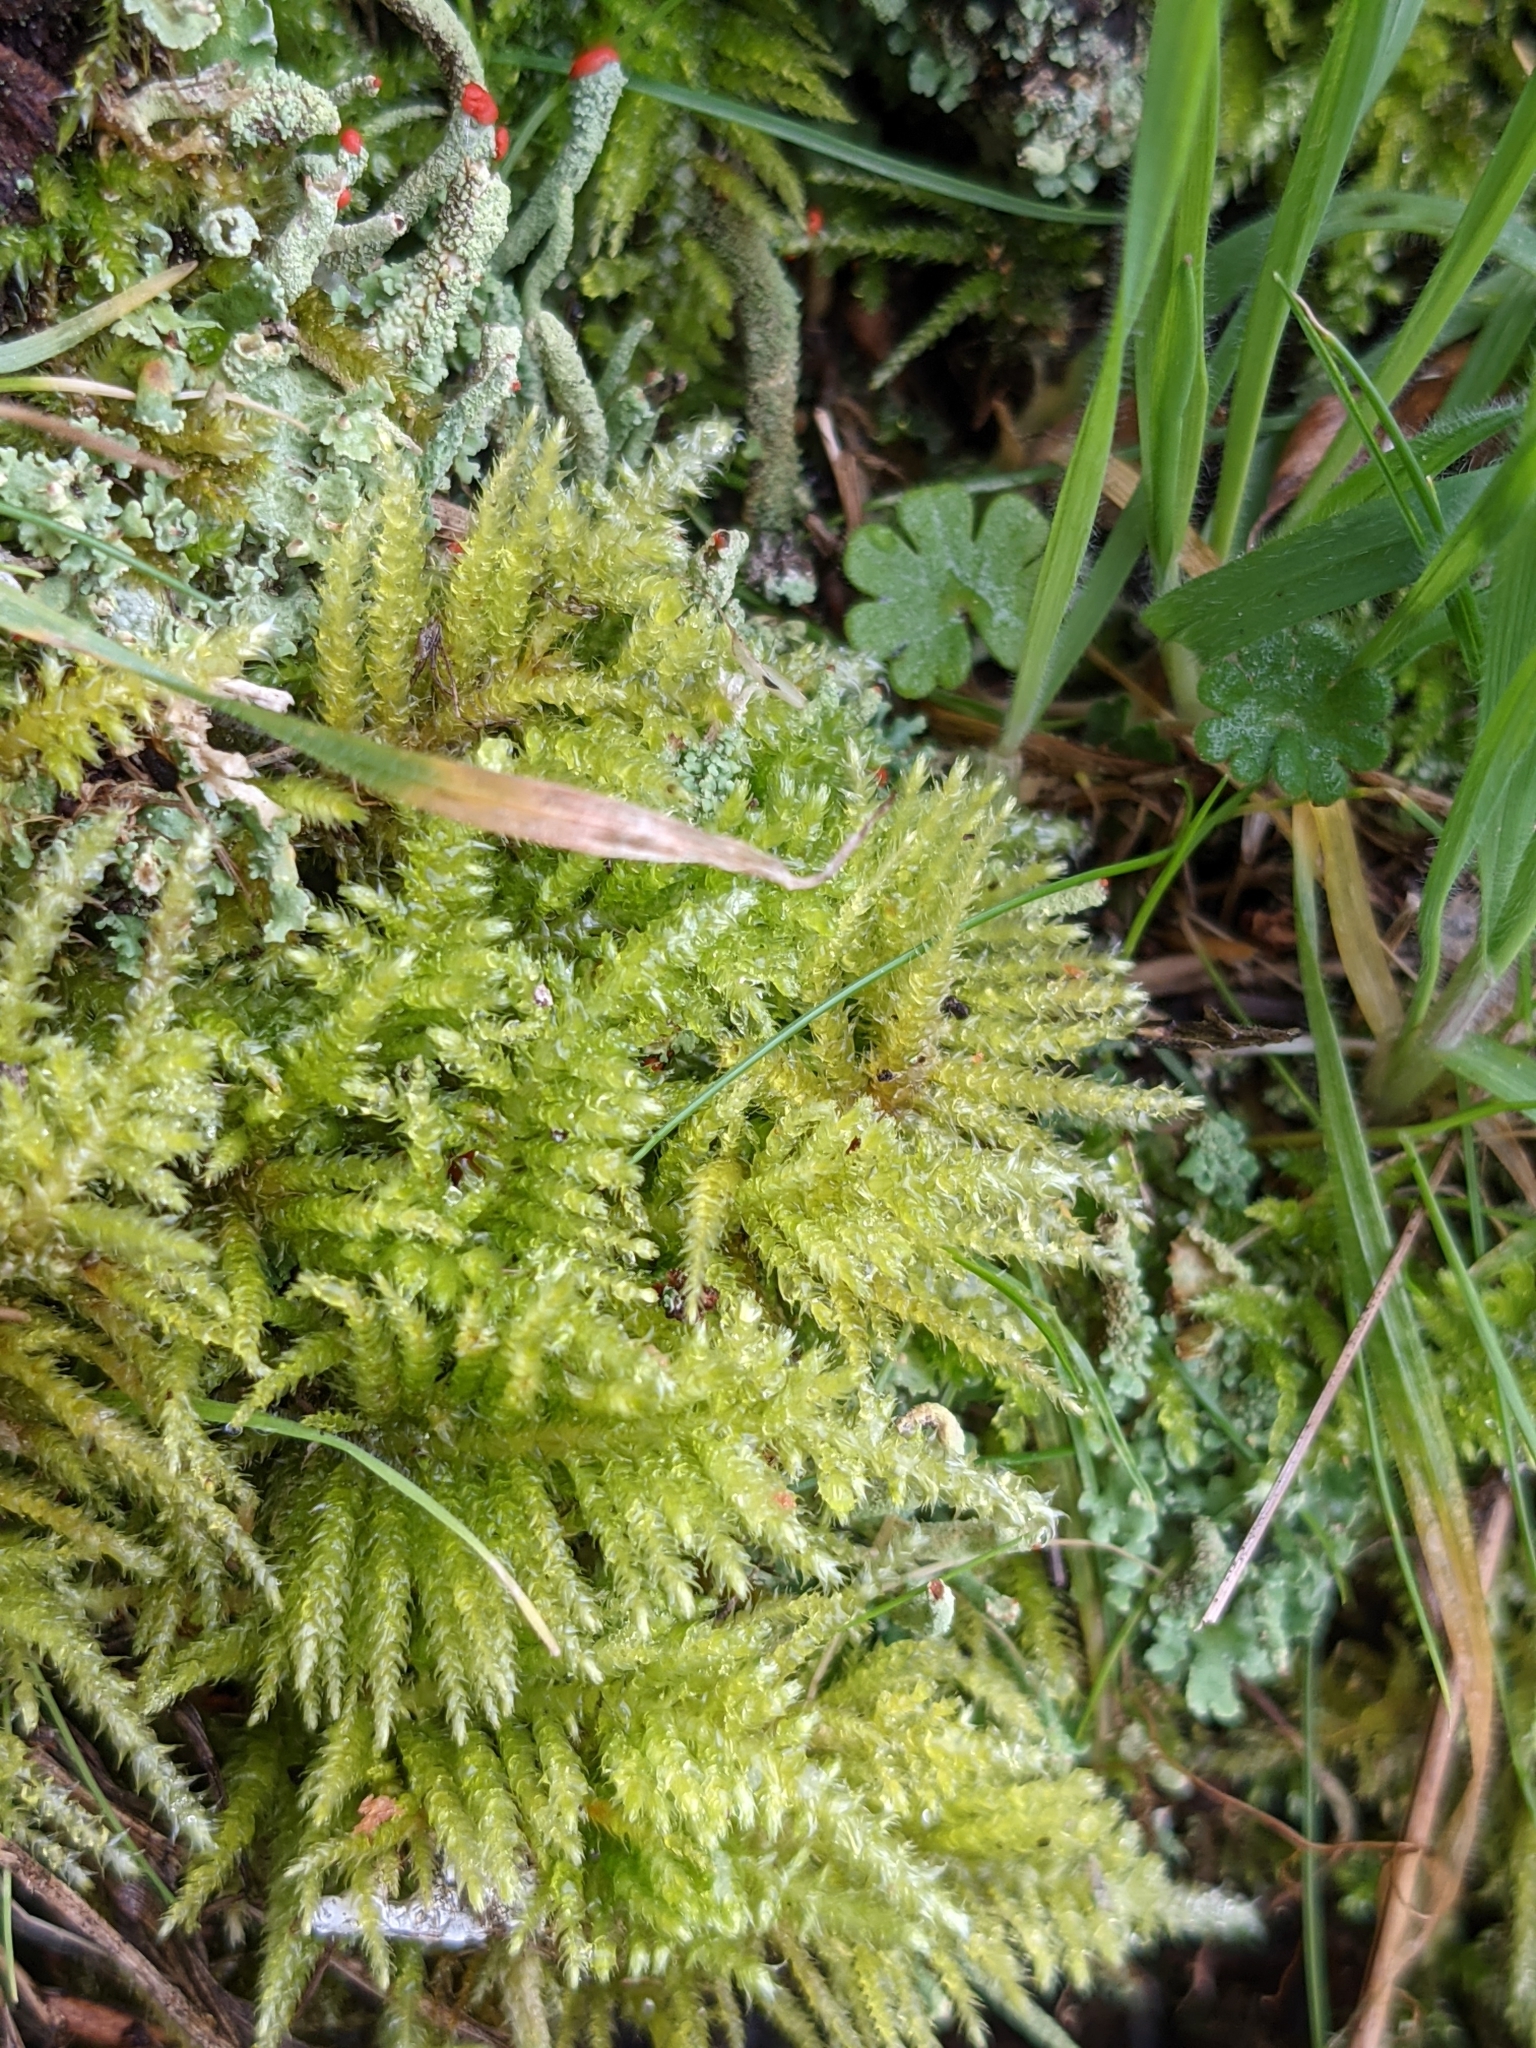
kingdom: Plantae
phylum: Bryophyta
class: Bryopsida
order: Hypnales
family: Brachytheciaceae
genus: Kindbergia
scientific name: Kindbergia oregana
